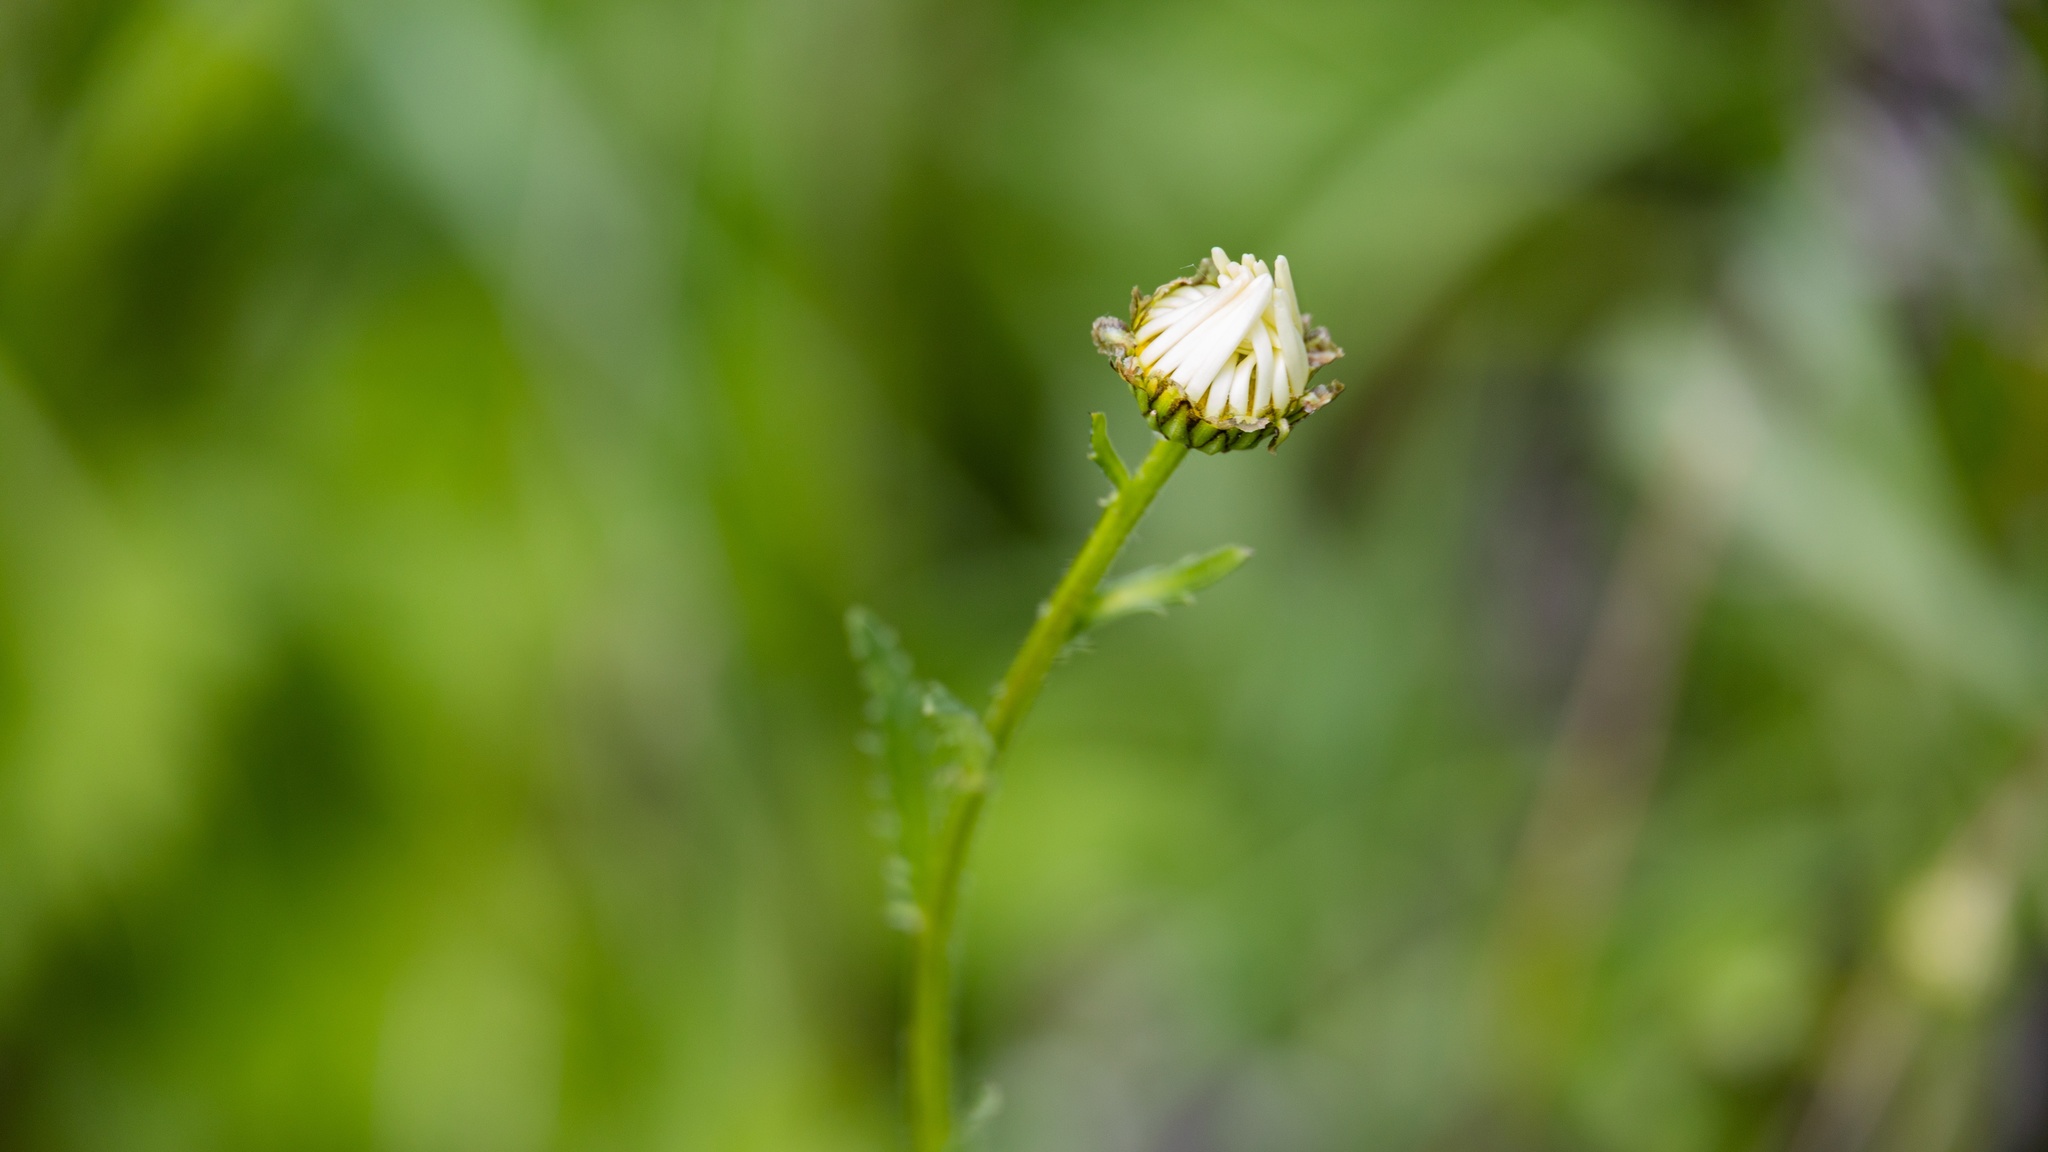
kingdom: Plantae
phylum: Tracheophyta
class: Magnoliopsida
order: Asterales
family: Asteraceae
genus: Leucanthemum
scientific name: Leucanthemum vulgare
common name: Oxeye daisy
